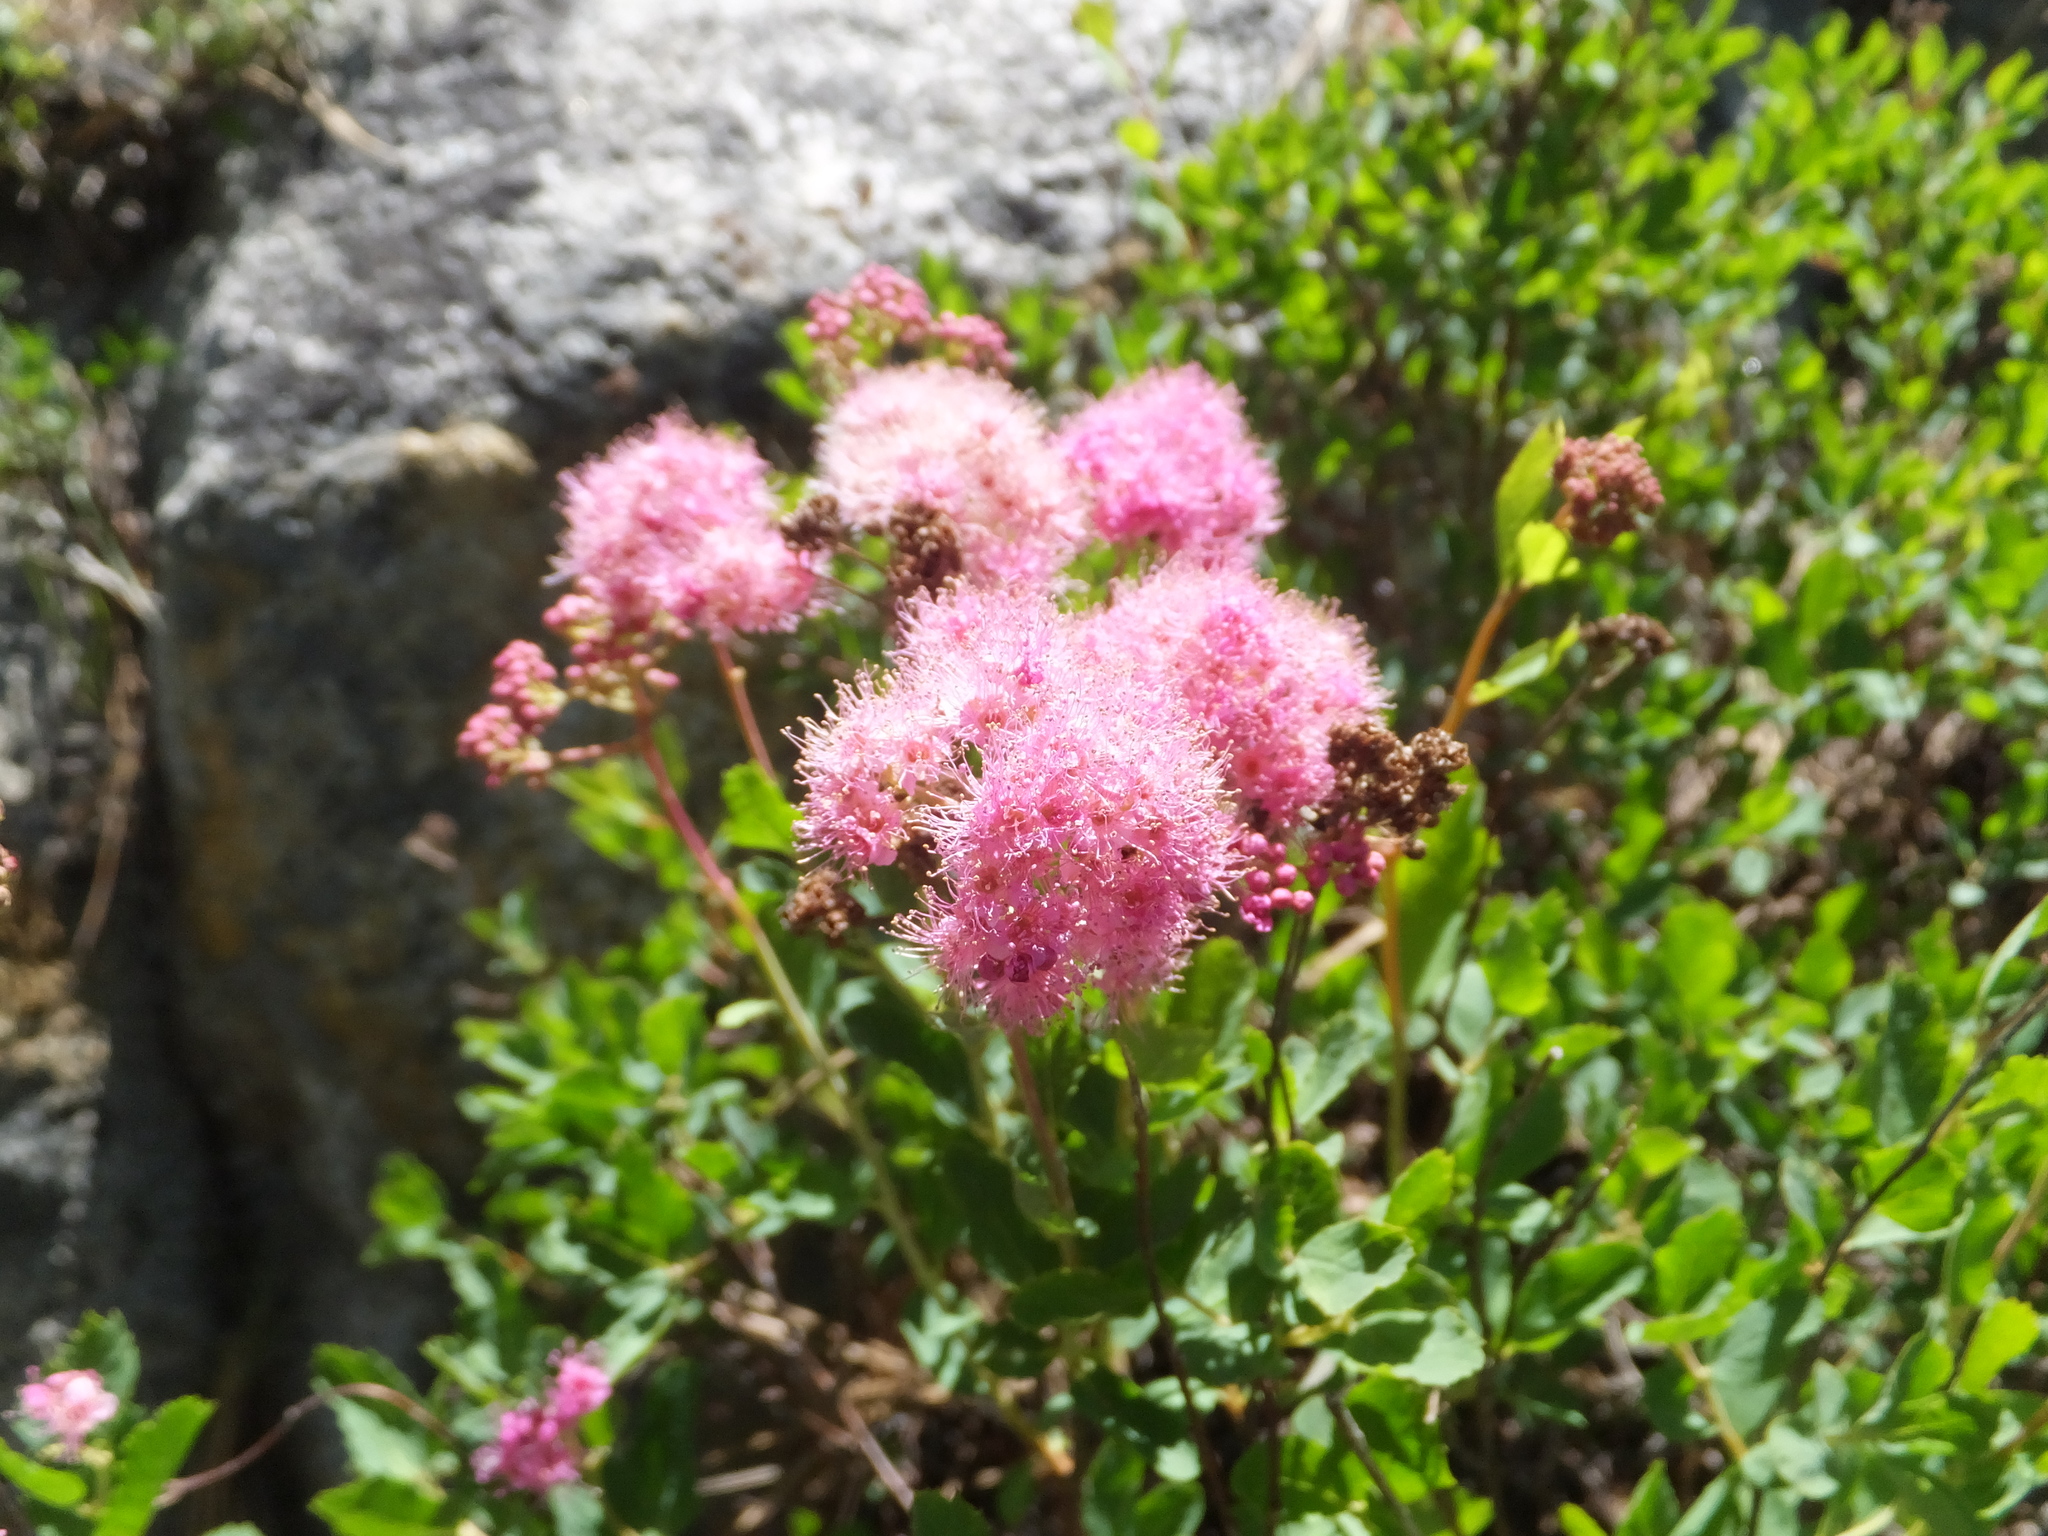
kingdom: Plantae
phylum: Tracheophyta
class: Magnoliopsida
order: Rosales
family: Rosaceae
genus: Spiraea
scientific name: Spiraea splendens
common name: Subalpine meadowsweet
